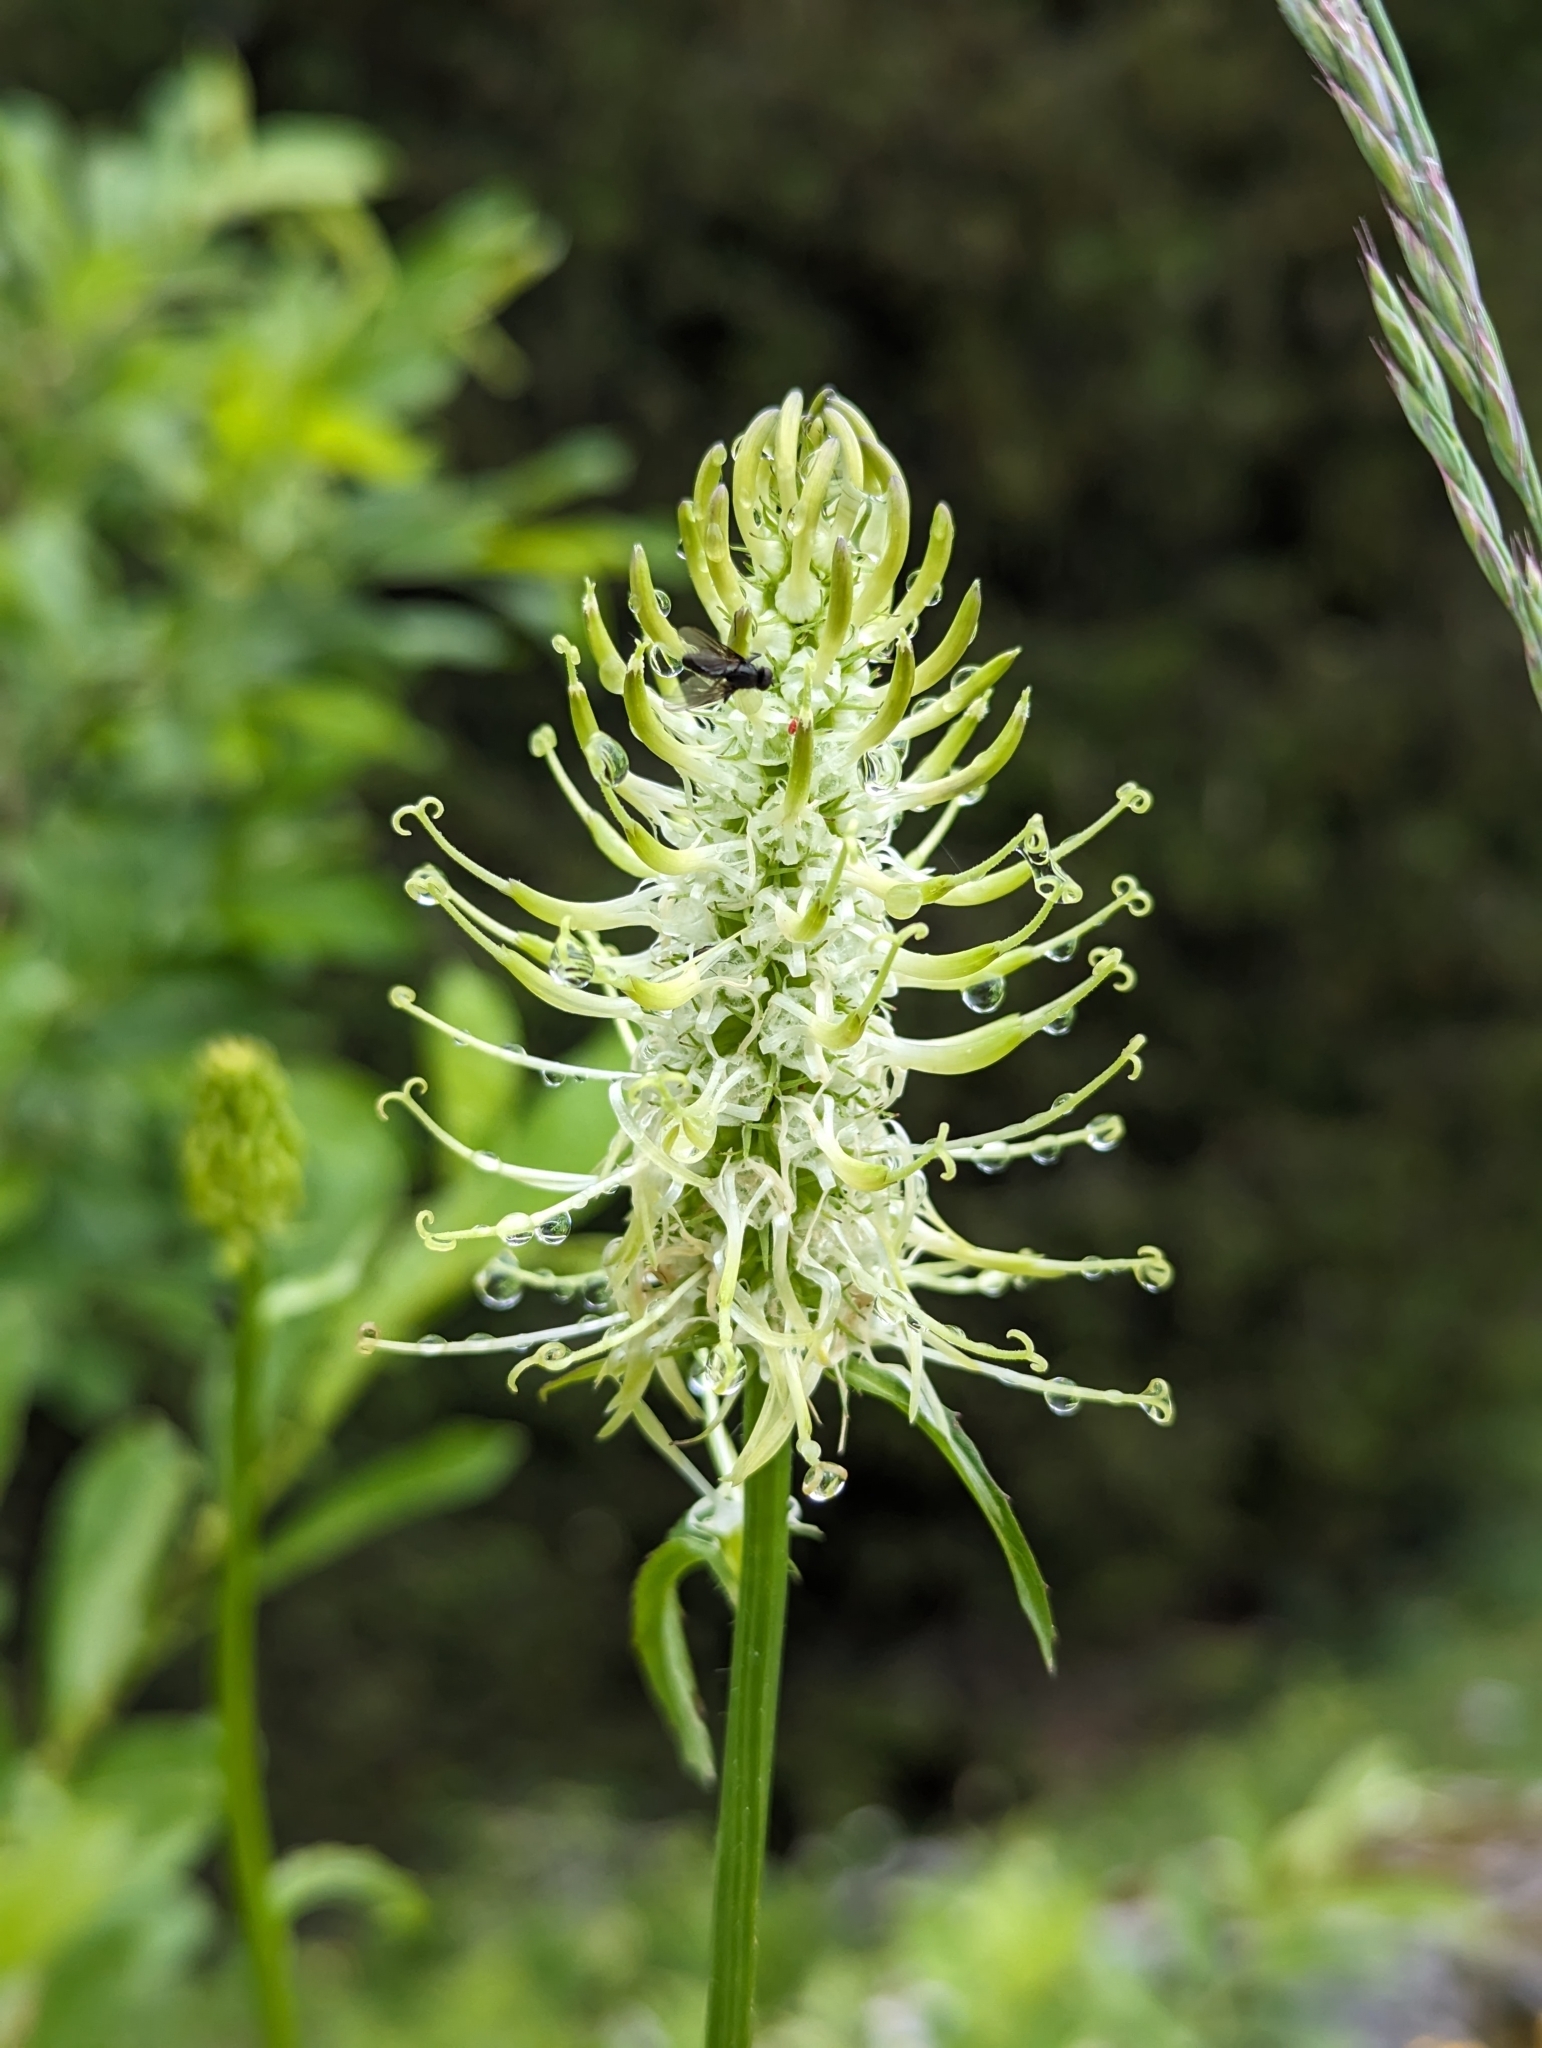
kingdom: Plantae
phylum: Tracheophyta
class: Magnoliopsida
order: Asterales
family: Campanulaceae
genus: Phyteuma
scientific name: Phyteuma spicatum
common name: Spiked rampion
